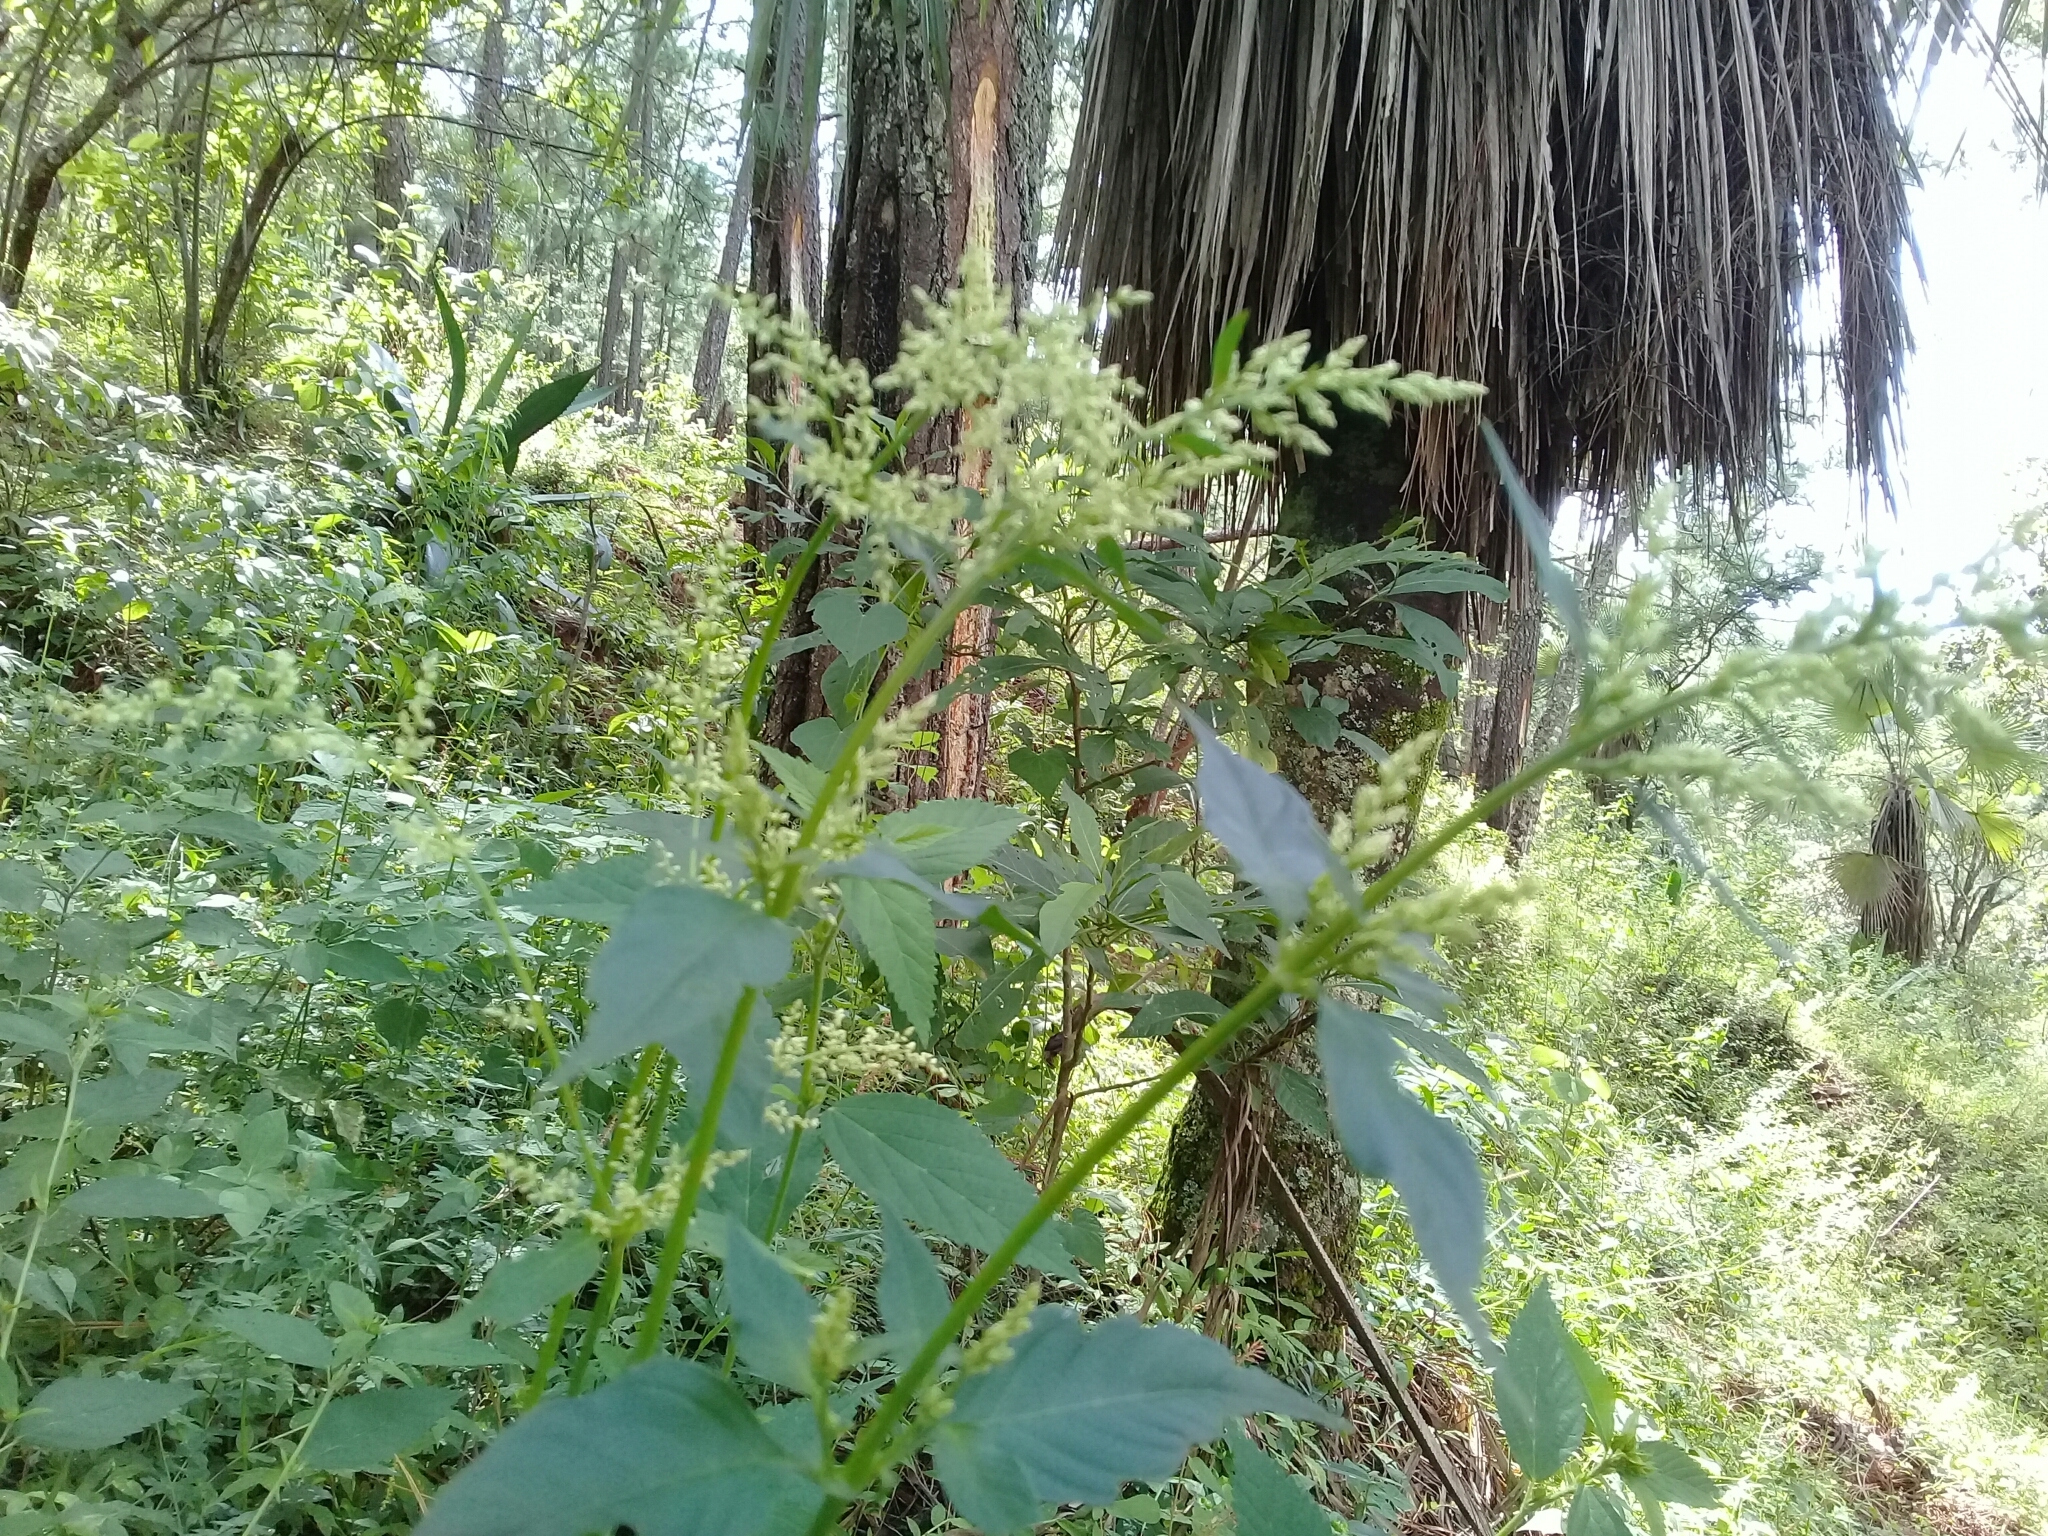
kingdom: Plantae
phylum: Tracheophyta
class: Magnoliopsida
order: Caryophyllales
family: Amaranthaceae
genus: Iresine
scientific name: Iresine diffusa
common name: Juba's-bush
